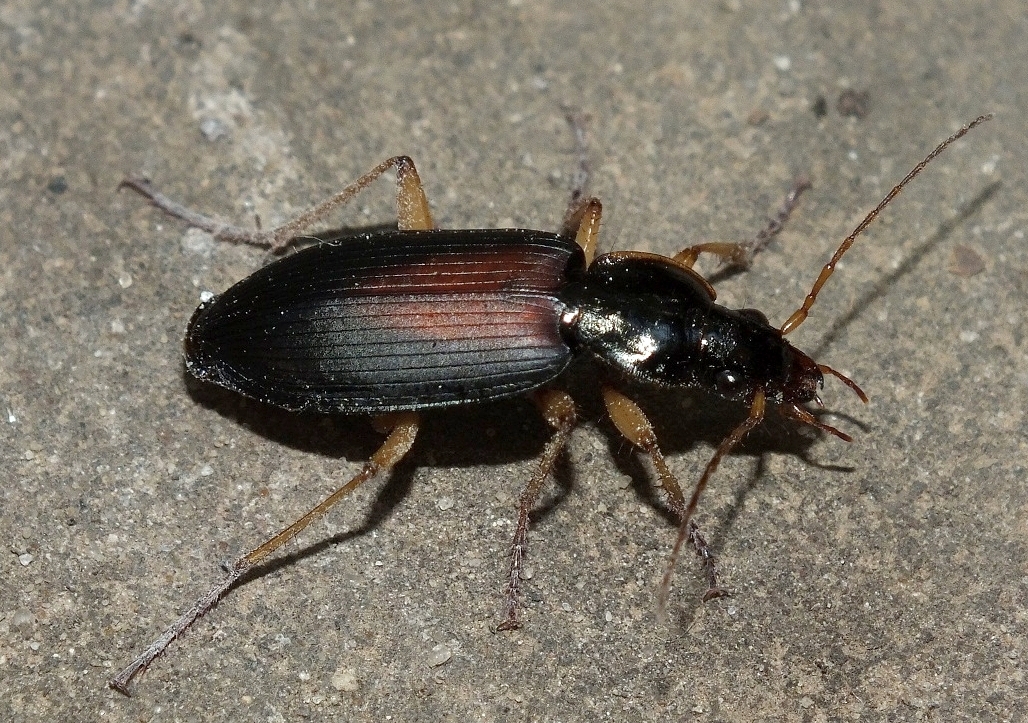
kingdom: Animalia
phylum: Arthropoda
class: Insecta
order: Coleoptera
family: Carabidae
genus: Dolichus
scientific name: Dolichus halensis
